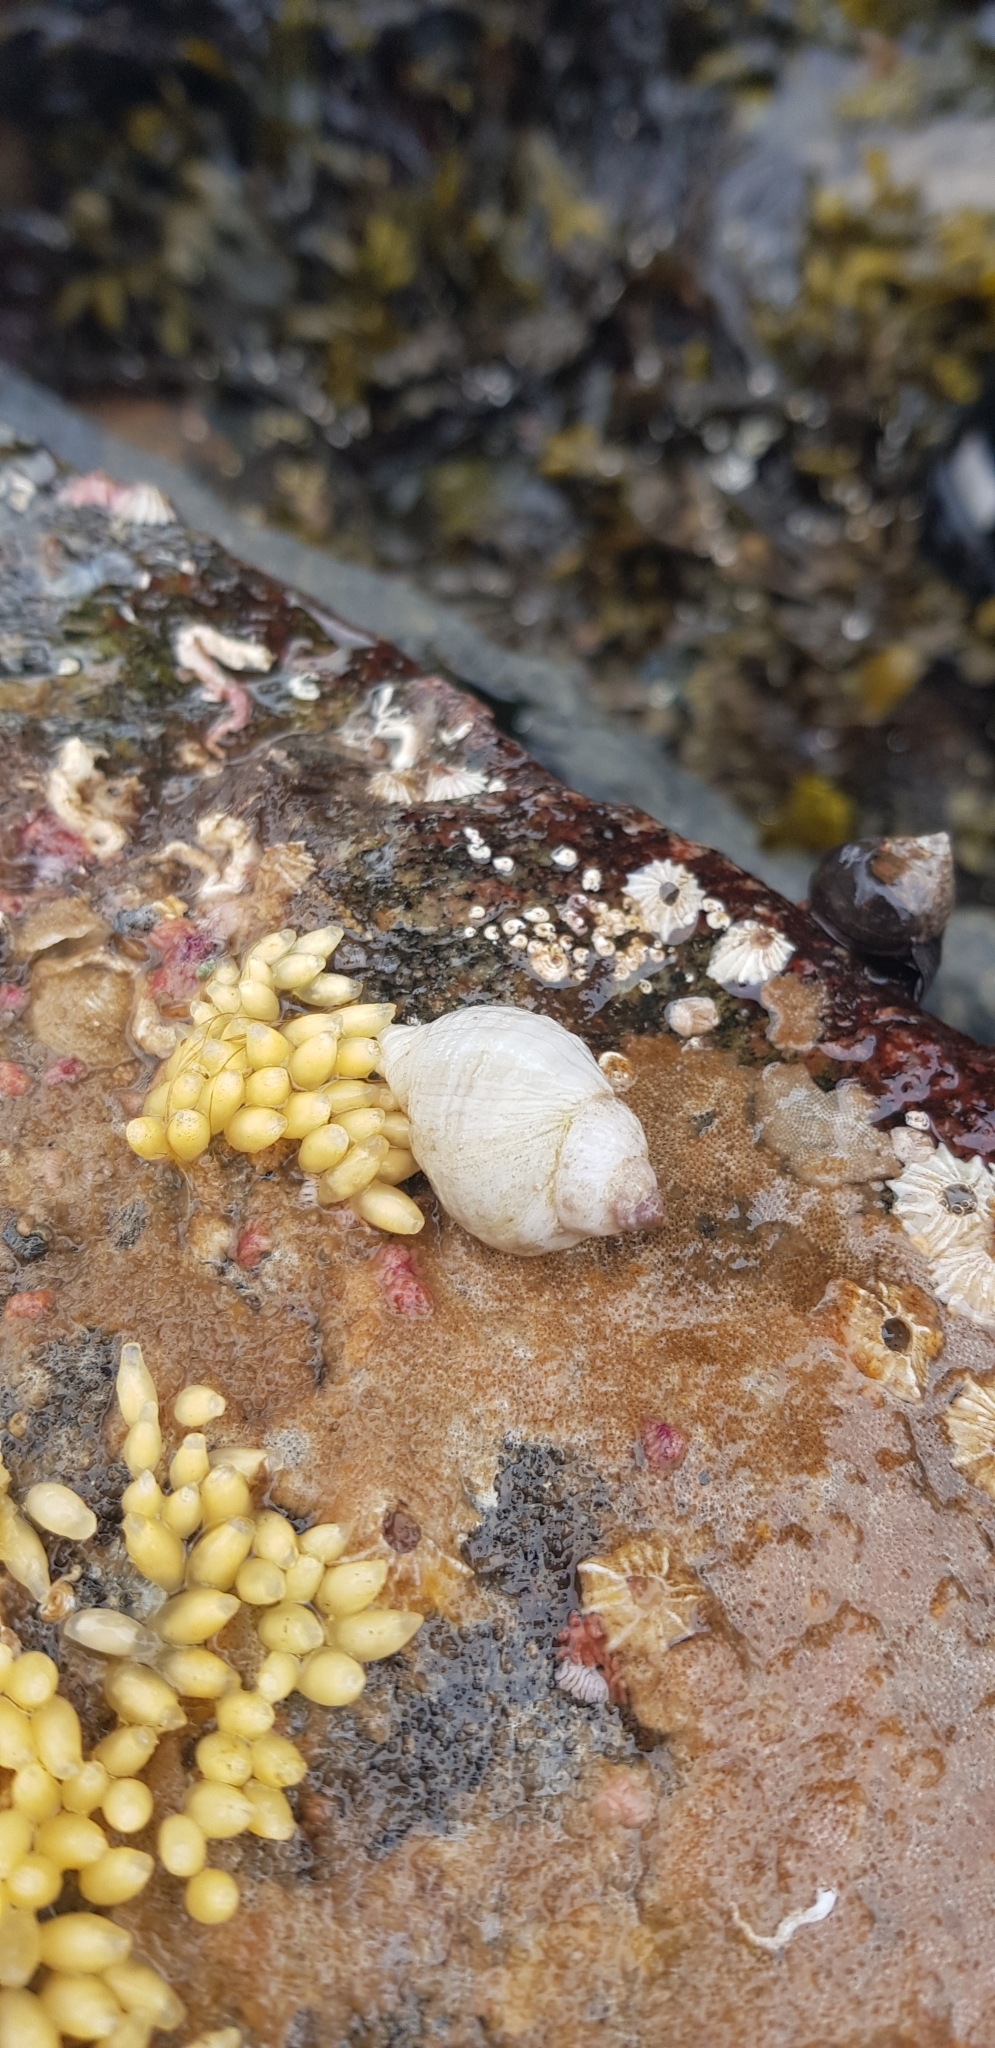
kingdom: Animalia
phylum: Mollusca
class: Gastropoda
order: Neogastropoda
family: Muricidae
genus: Nucella
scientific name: Nucella lapillus
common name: Dog whelk
